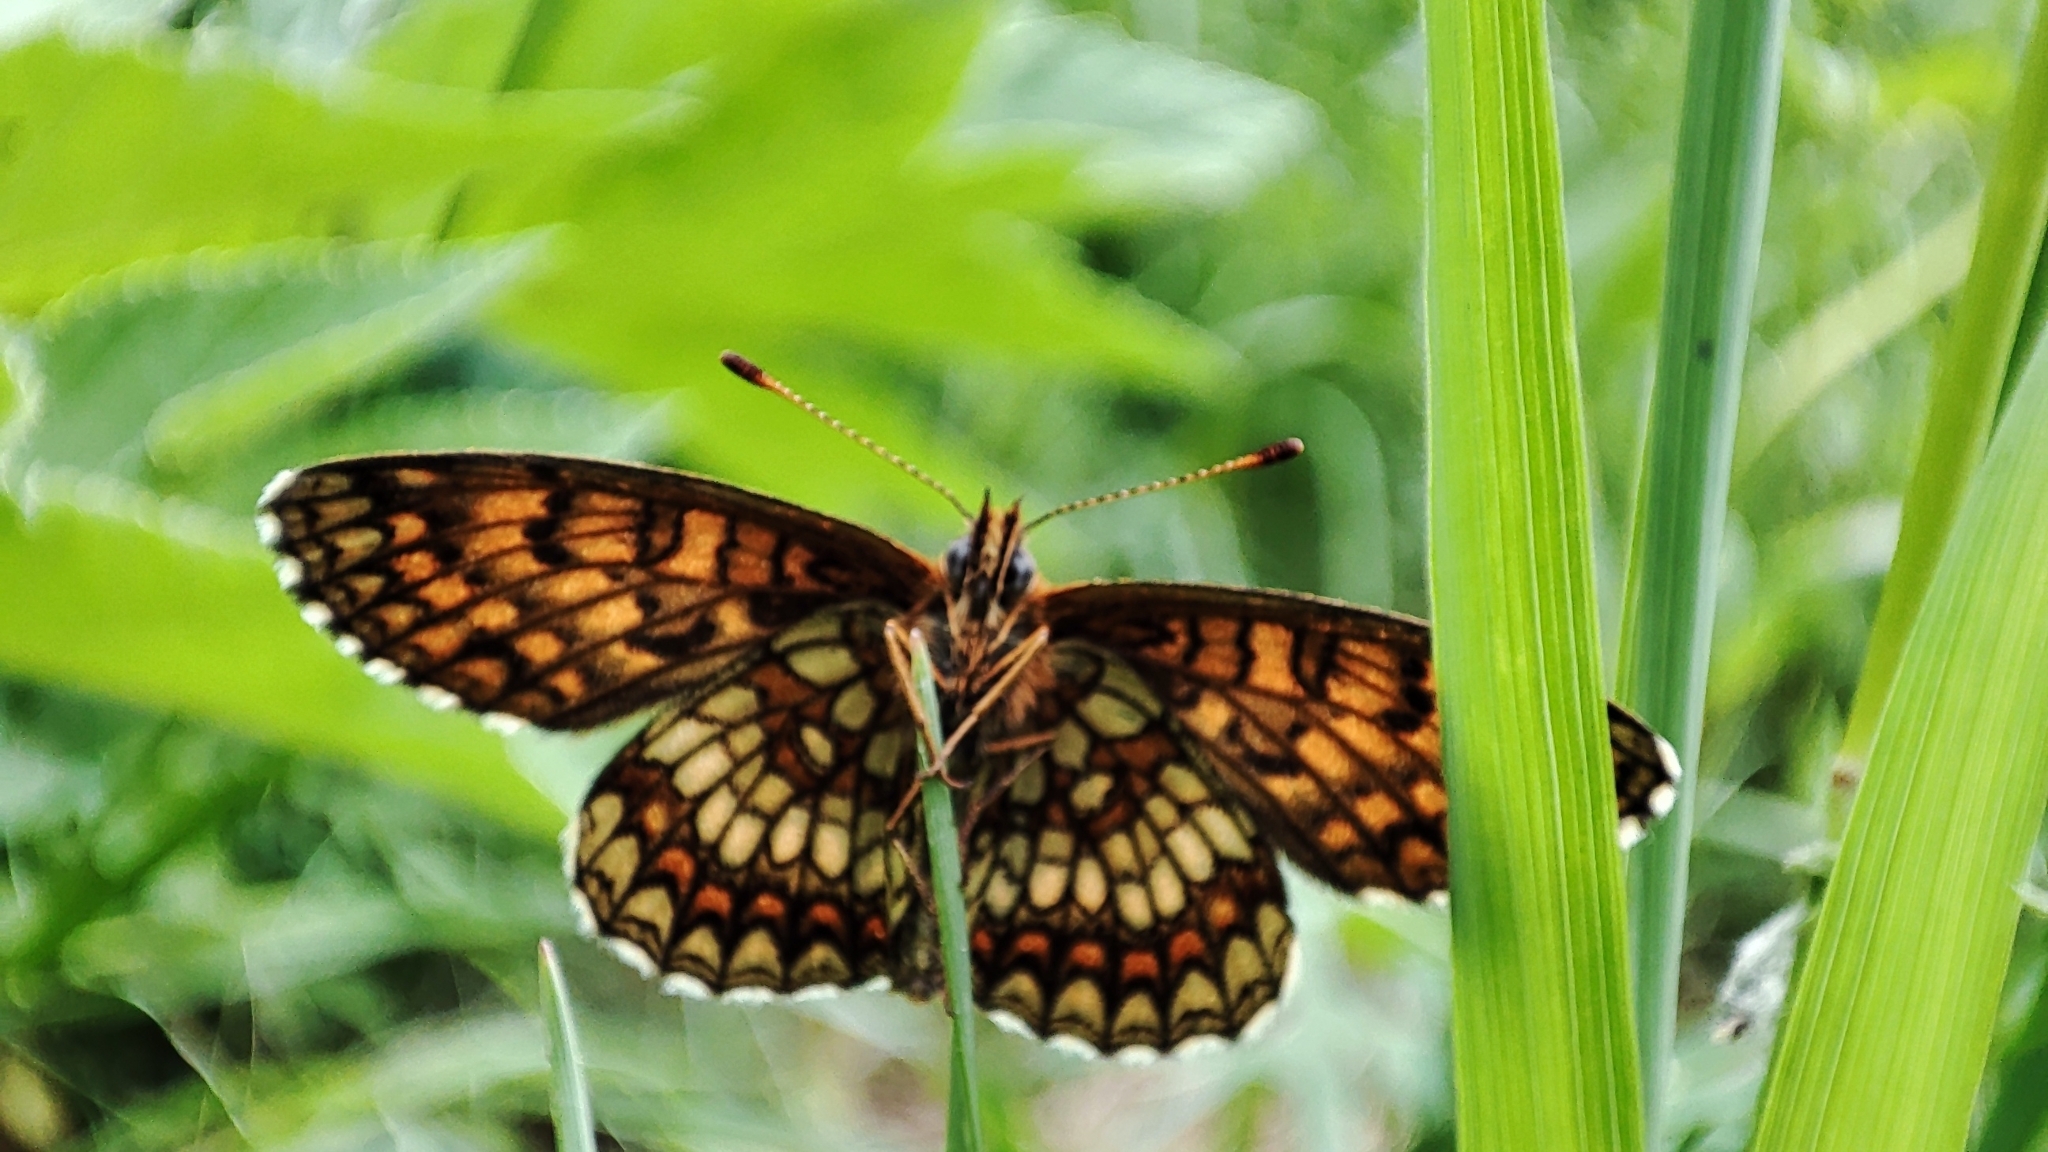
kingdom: Animalia
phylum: Arthropoda
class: Insecta
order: Lepidoptera
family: Nymphalidae
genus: Melitaea
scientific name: Melitaea athalia
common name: Heath fritillary
